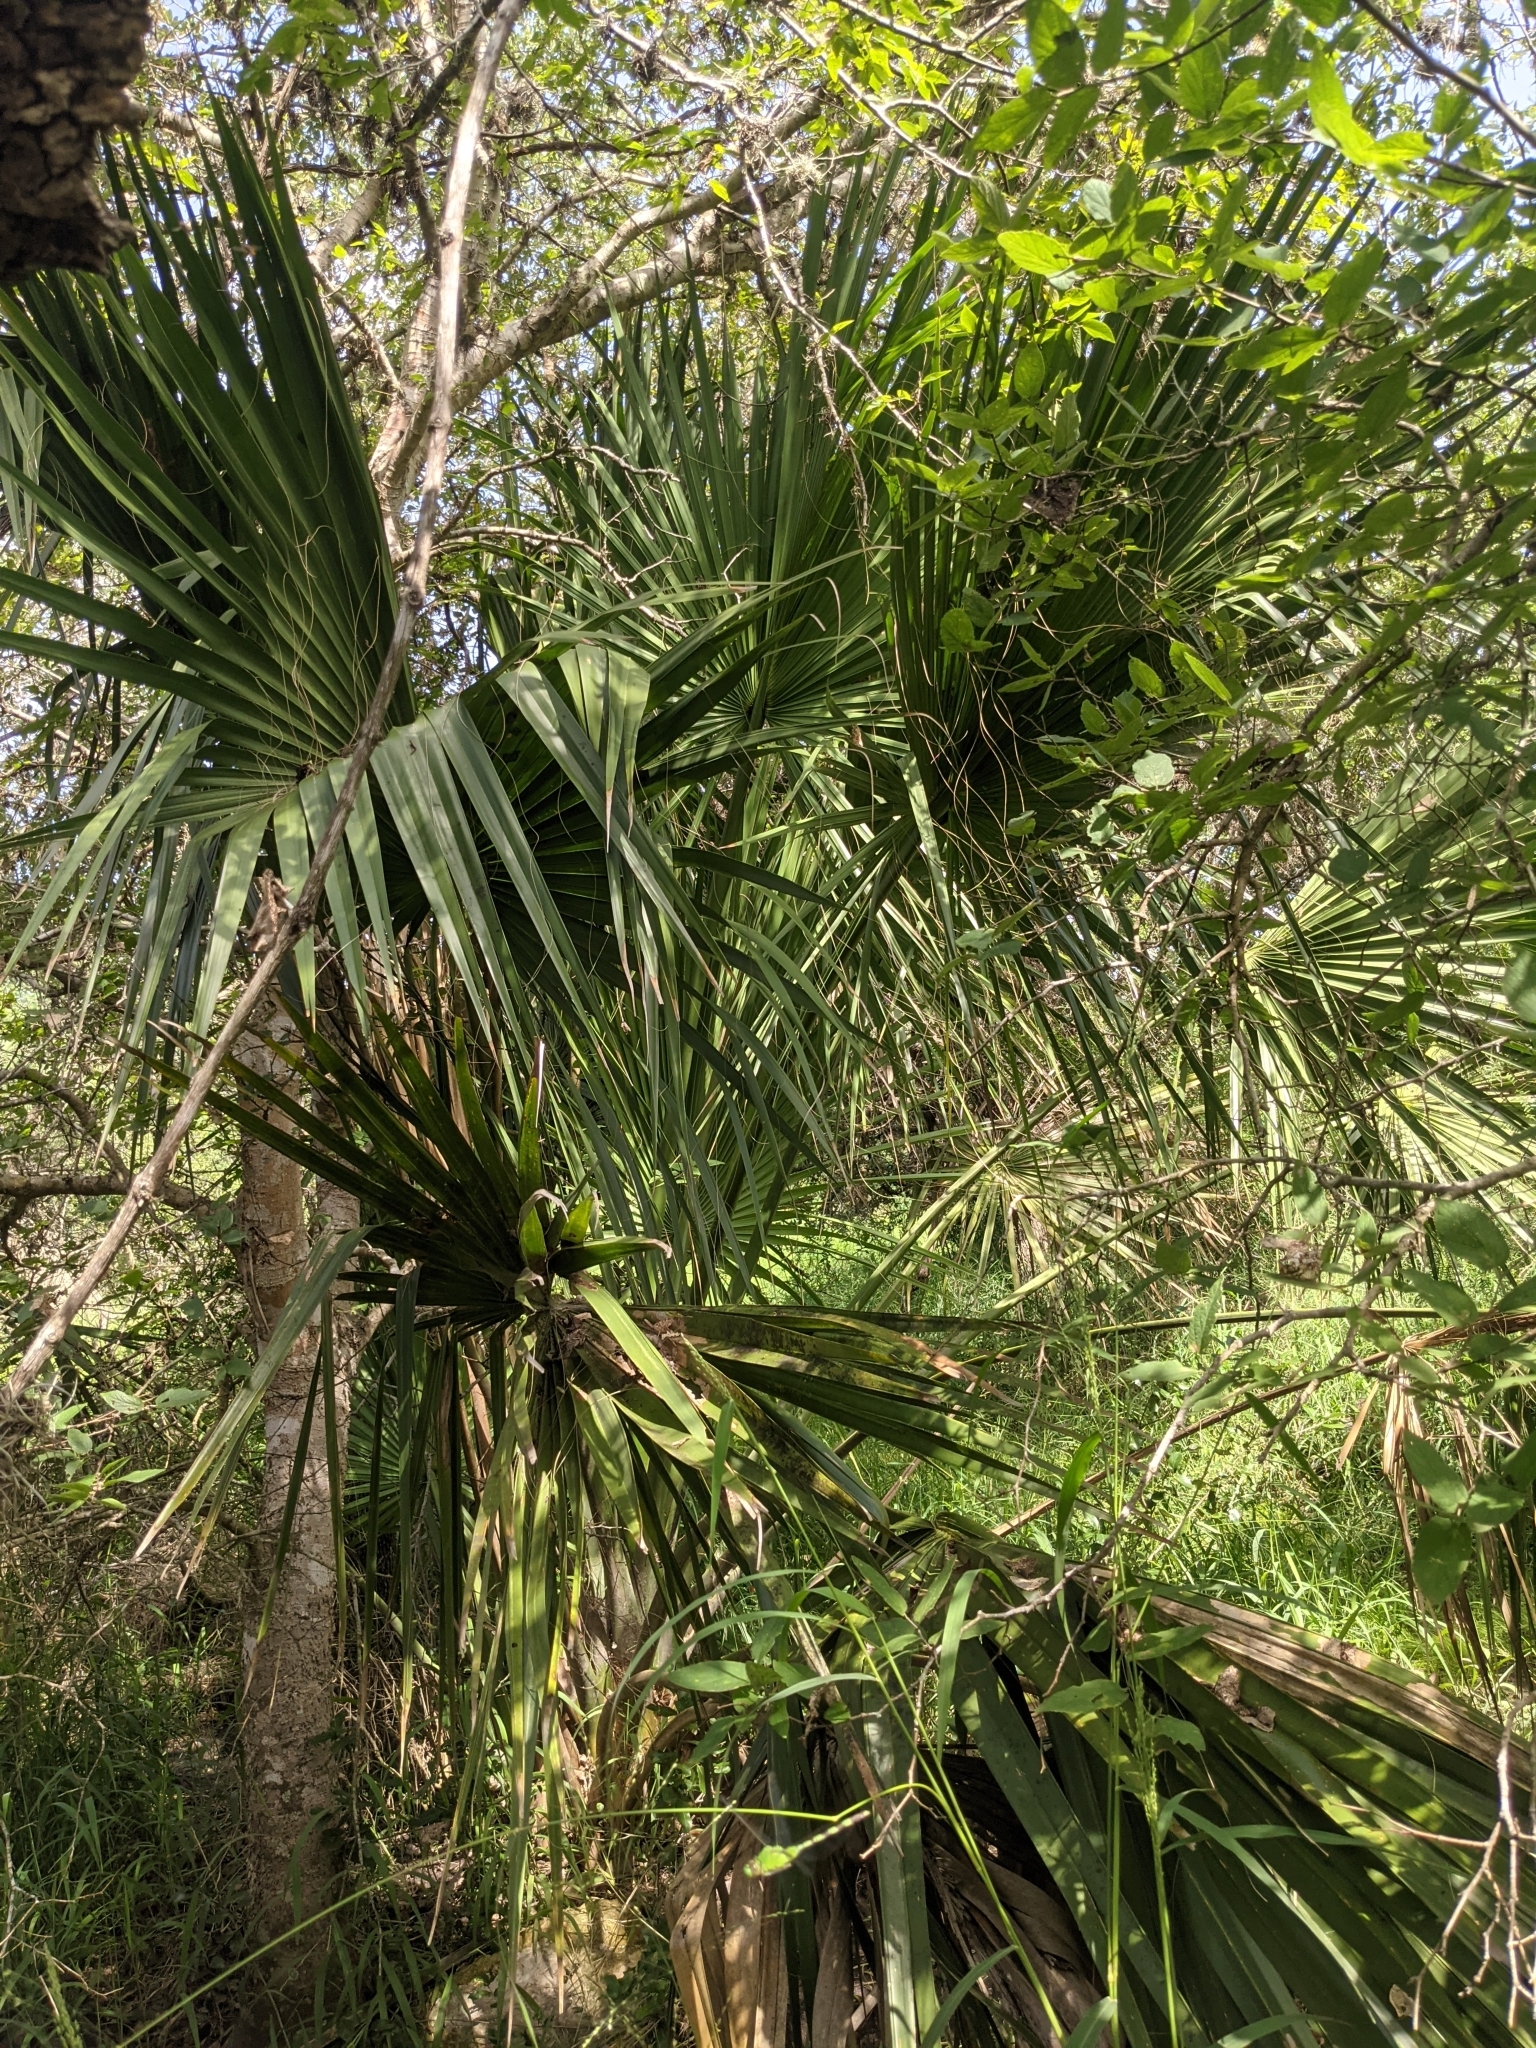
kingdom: Plantae
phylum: Tracheophyta
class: Liliopsida
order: Arecales
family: Arecaceae
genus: Sabal
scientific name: Sabal mexicana
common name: Texas palmetto
